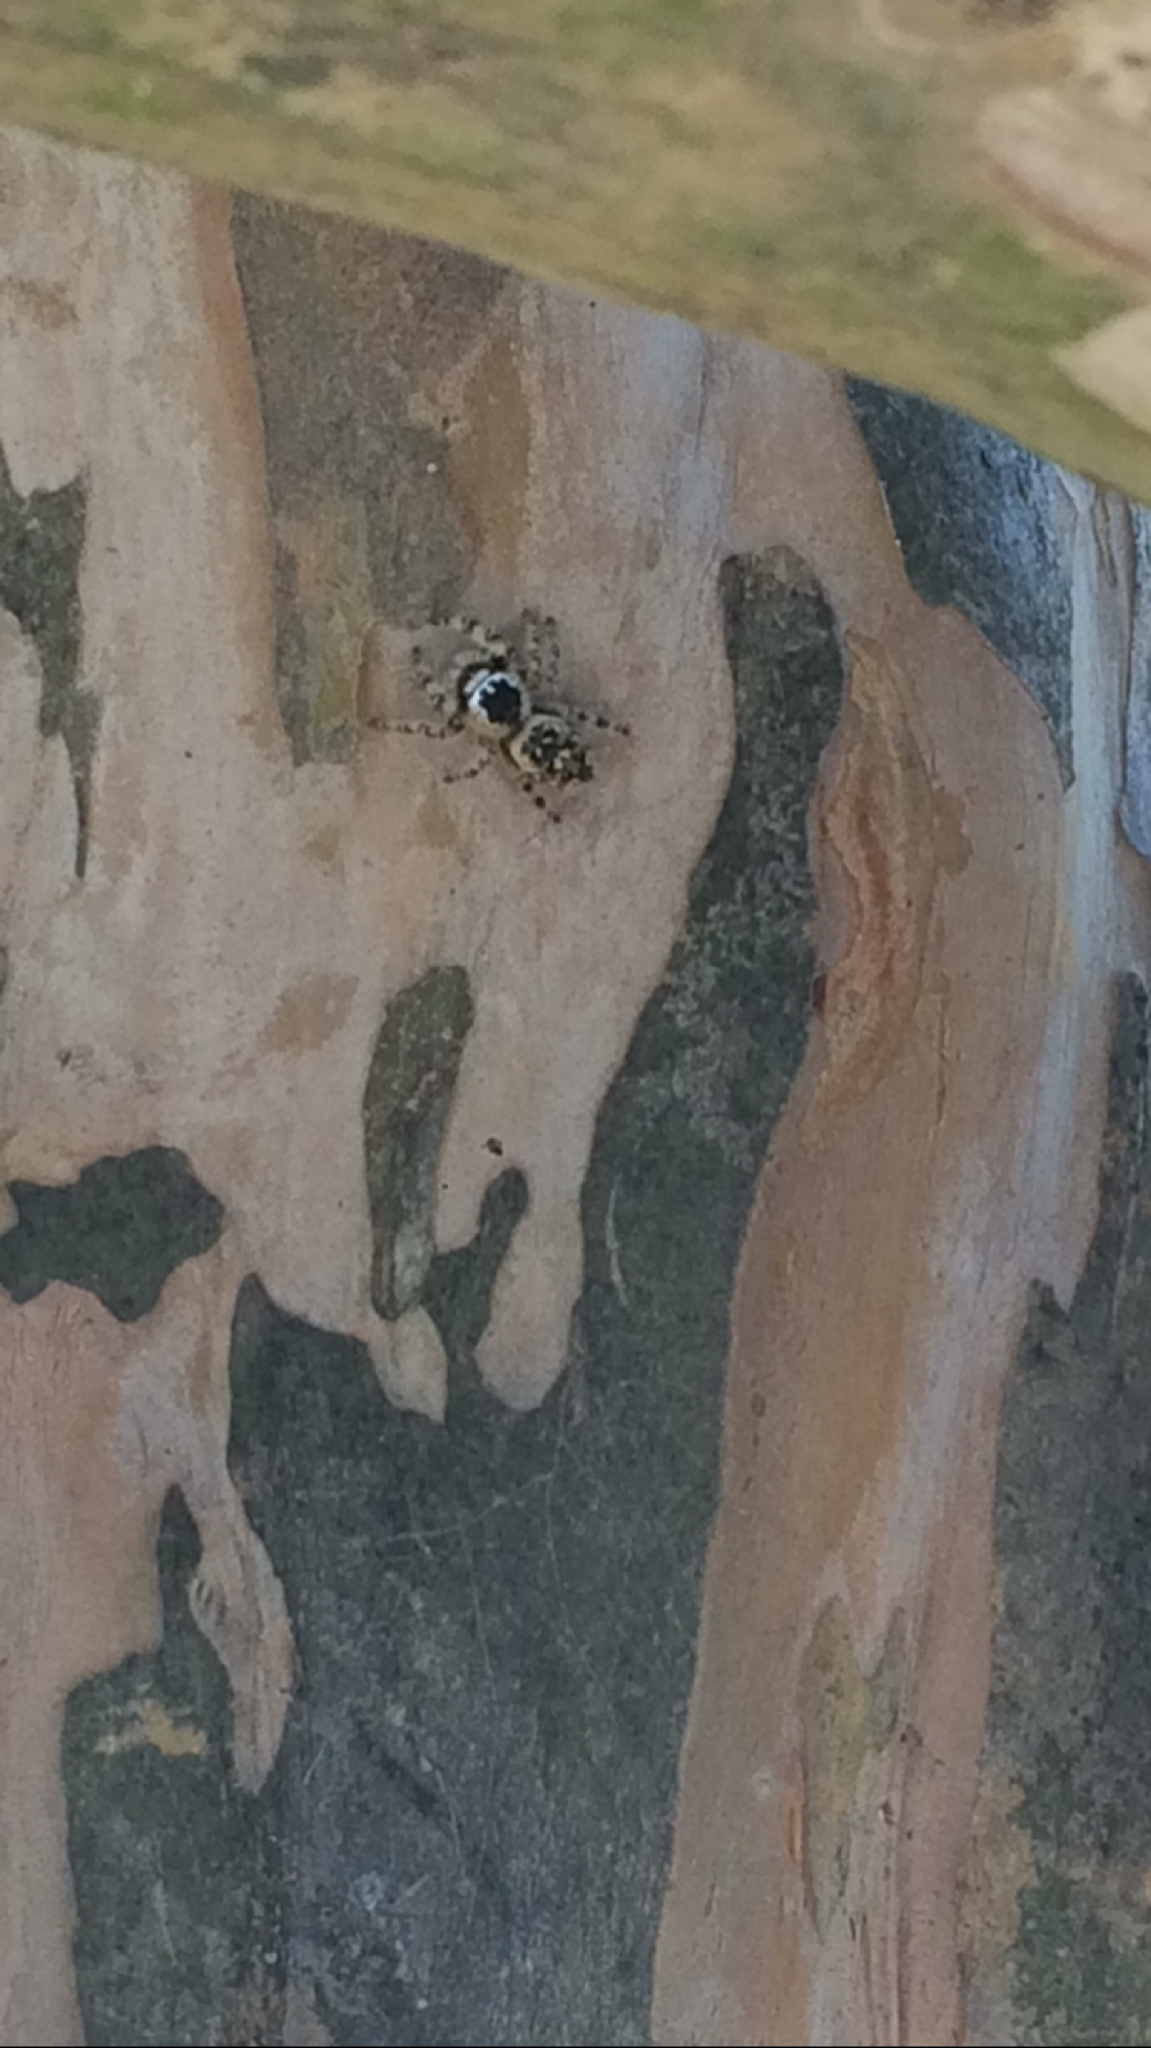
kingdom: Animalia
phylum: Arthropoda
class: Arachnida
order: Araneae
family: Salticidae
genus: Phidippus
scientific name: Phidippus otiosus
